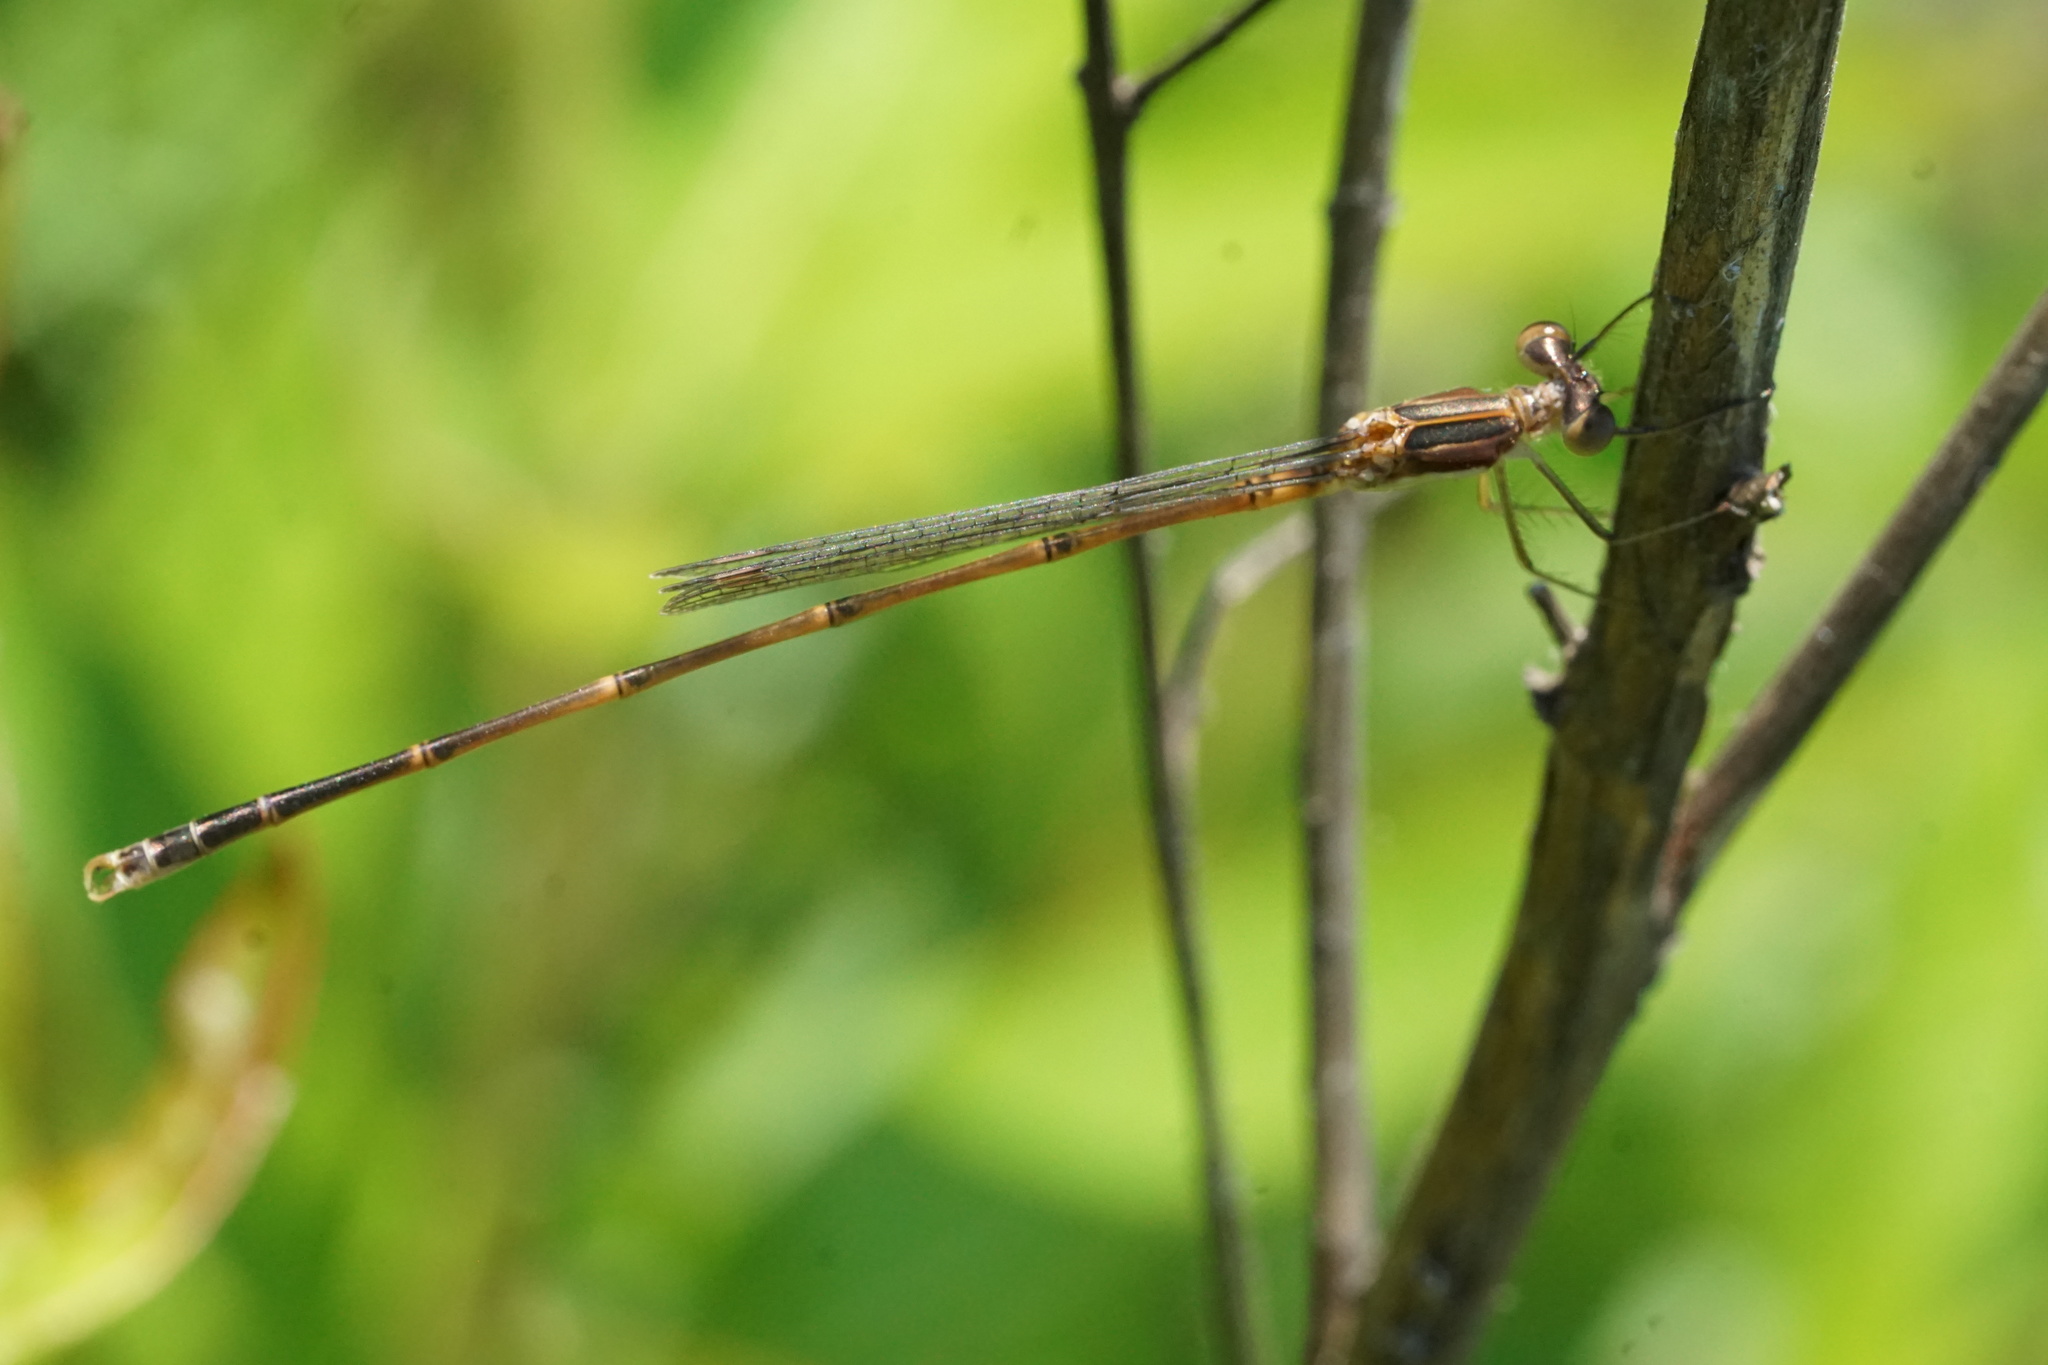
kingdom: Animalia
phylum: Arthropoda
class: Insecta
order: Odonata
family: Lestidae
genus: Lestes
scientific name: Lestes rectangularis
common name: Slender spreadwing
